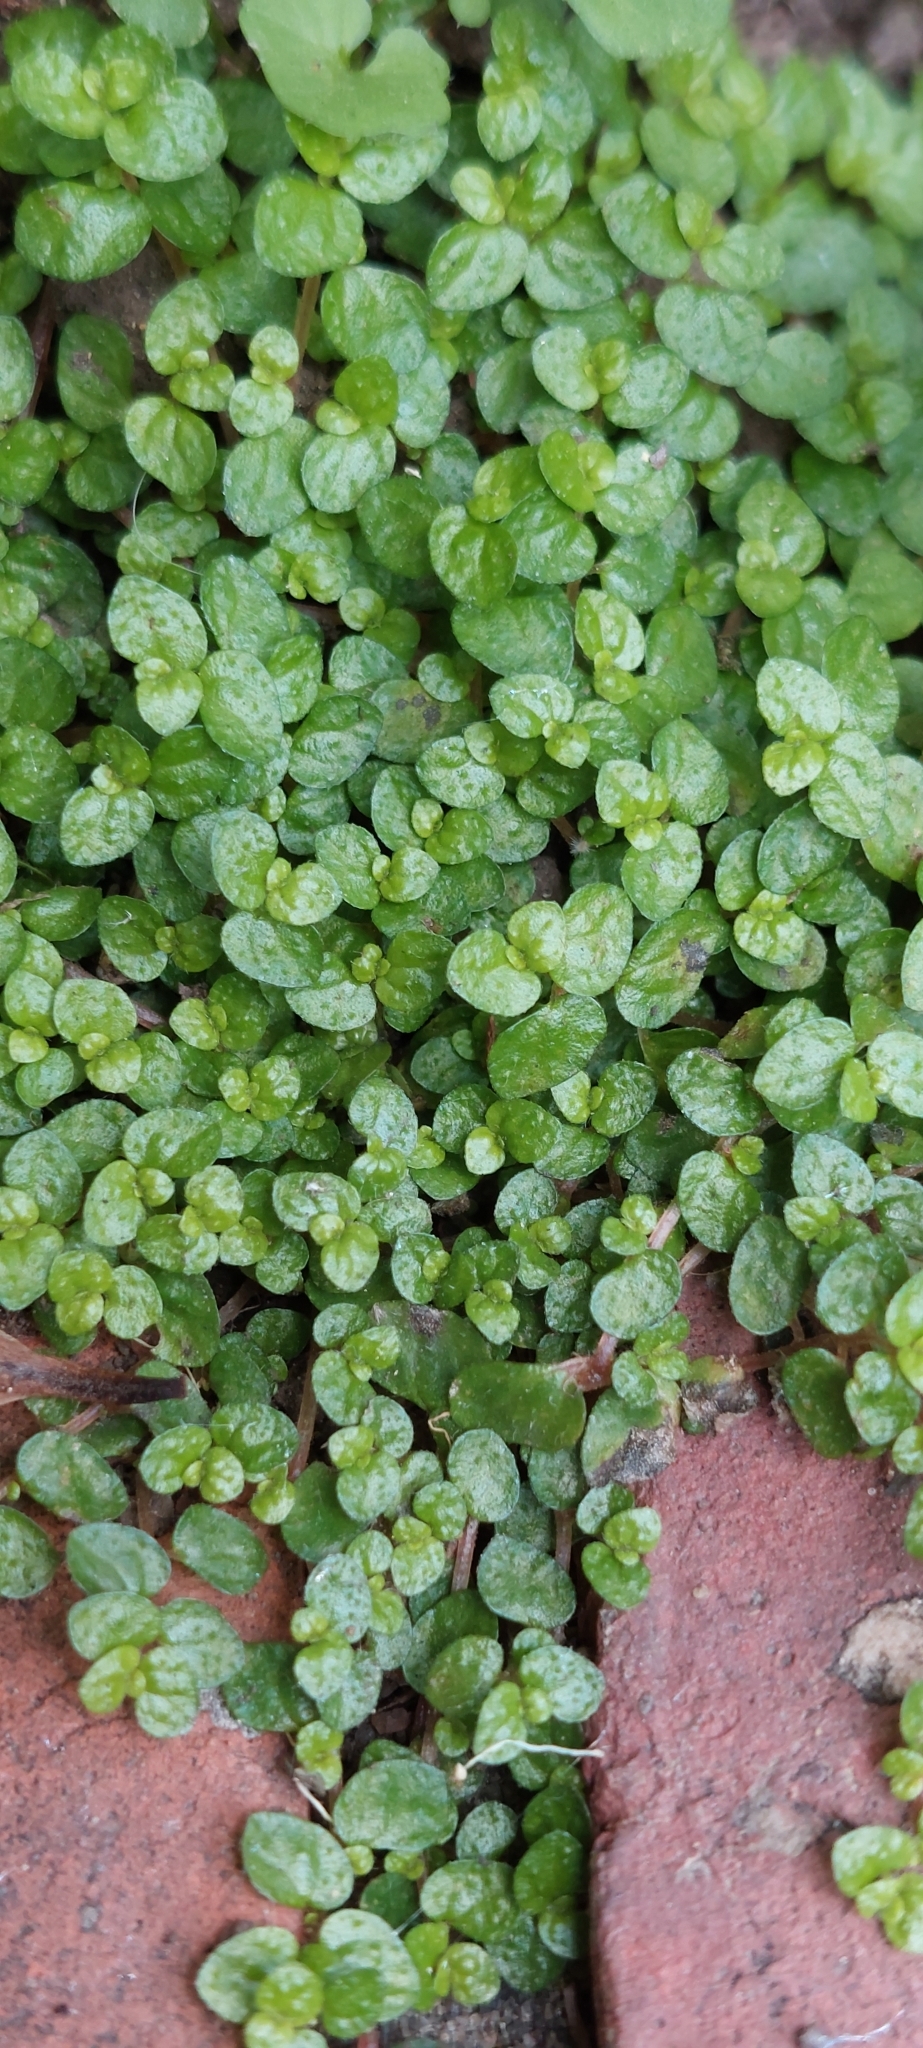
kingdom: Plantae
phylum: Tracheophyta
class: Magnoliopsida
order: Rosales
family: Urticaceae
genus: Soleirolia
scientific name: Soleirolia soleirolii
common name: Mind-your-own-business
